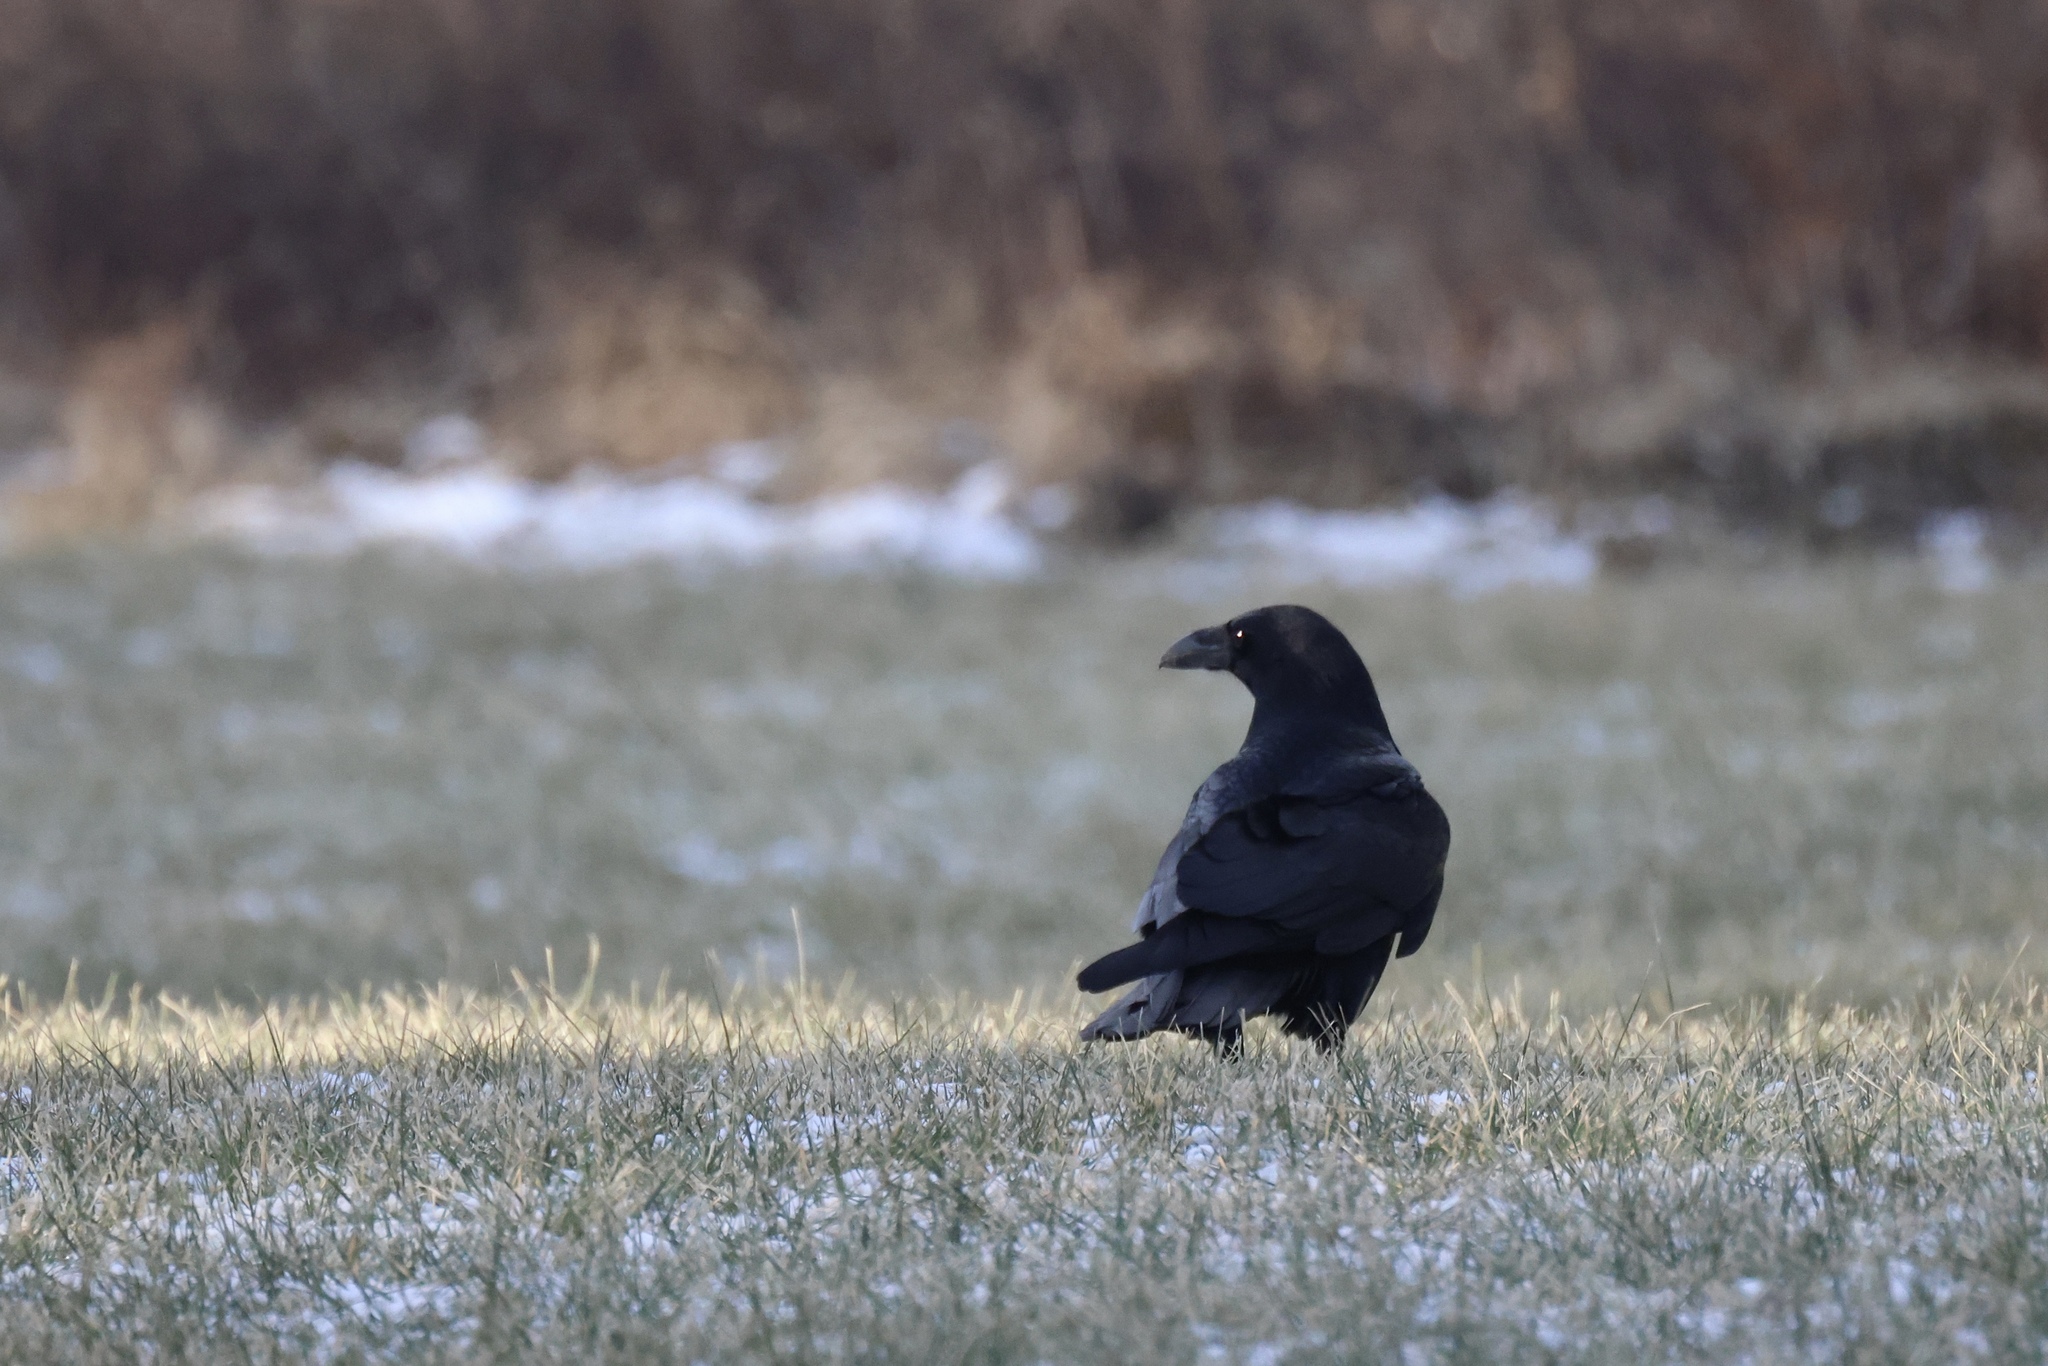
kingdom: Animalia
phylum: Chordata
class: Aves
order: Passeriformes
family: Corvidae
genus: Corvus
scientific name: Corvus corax
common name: Common raven
